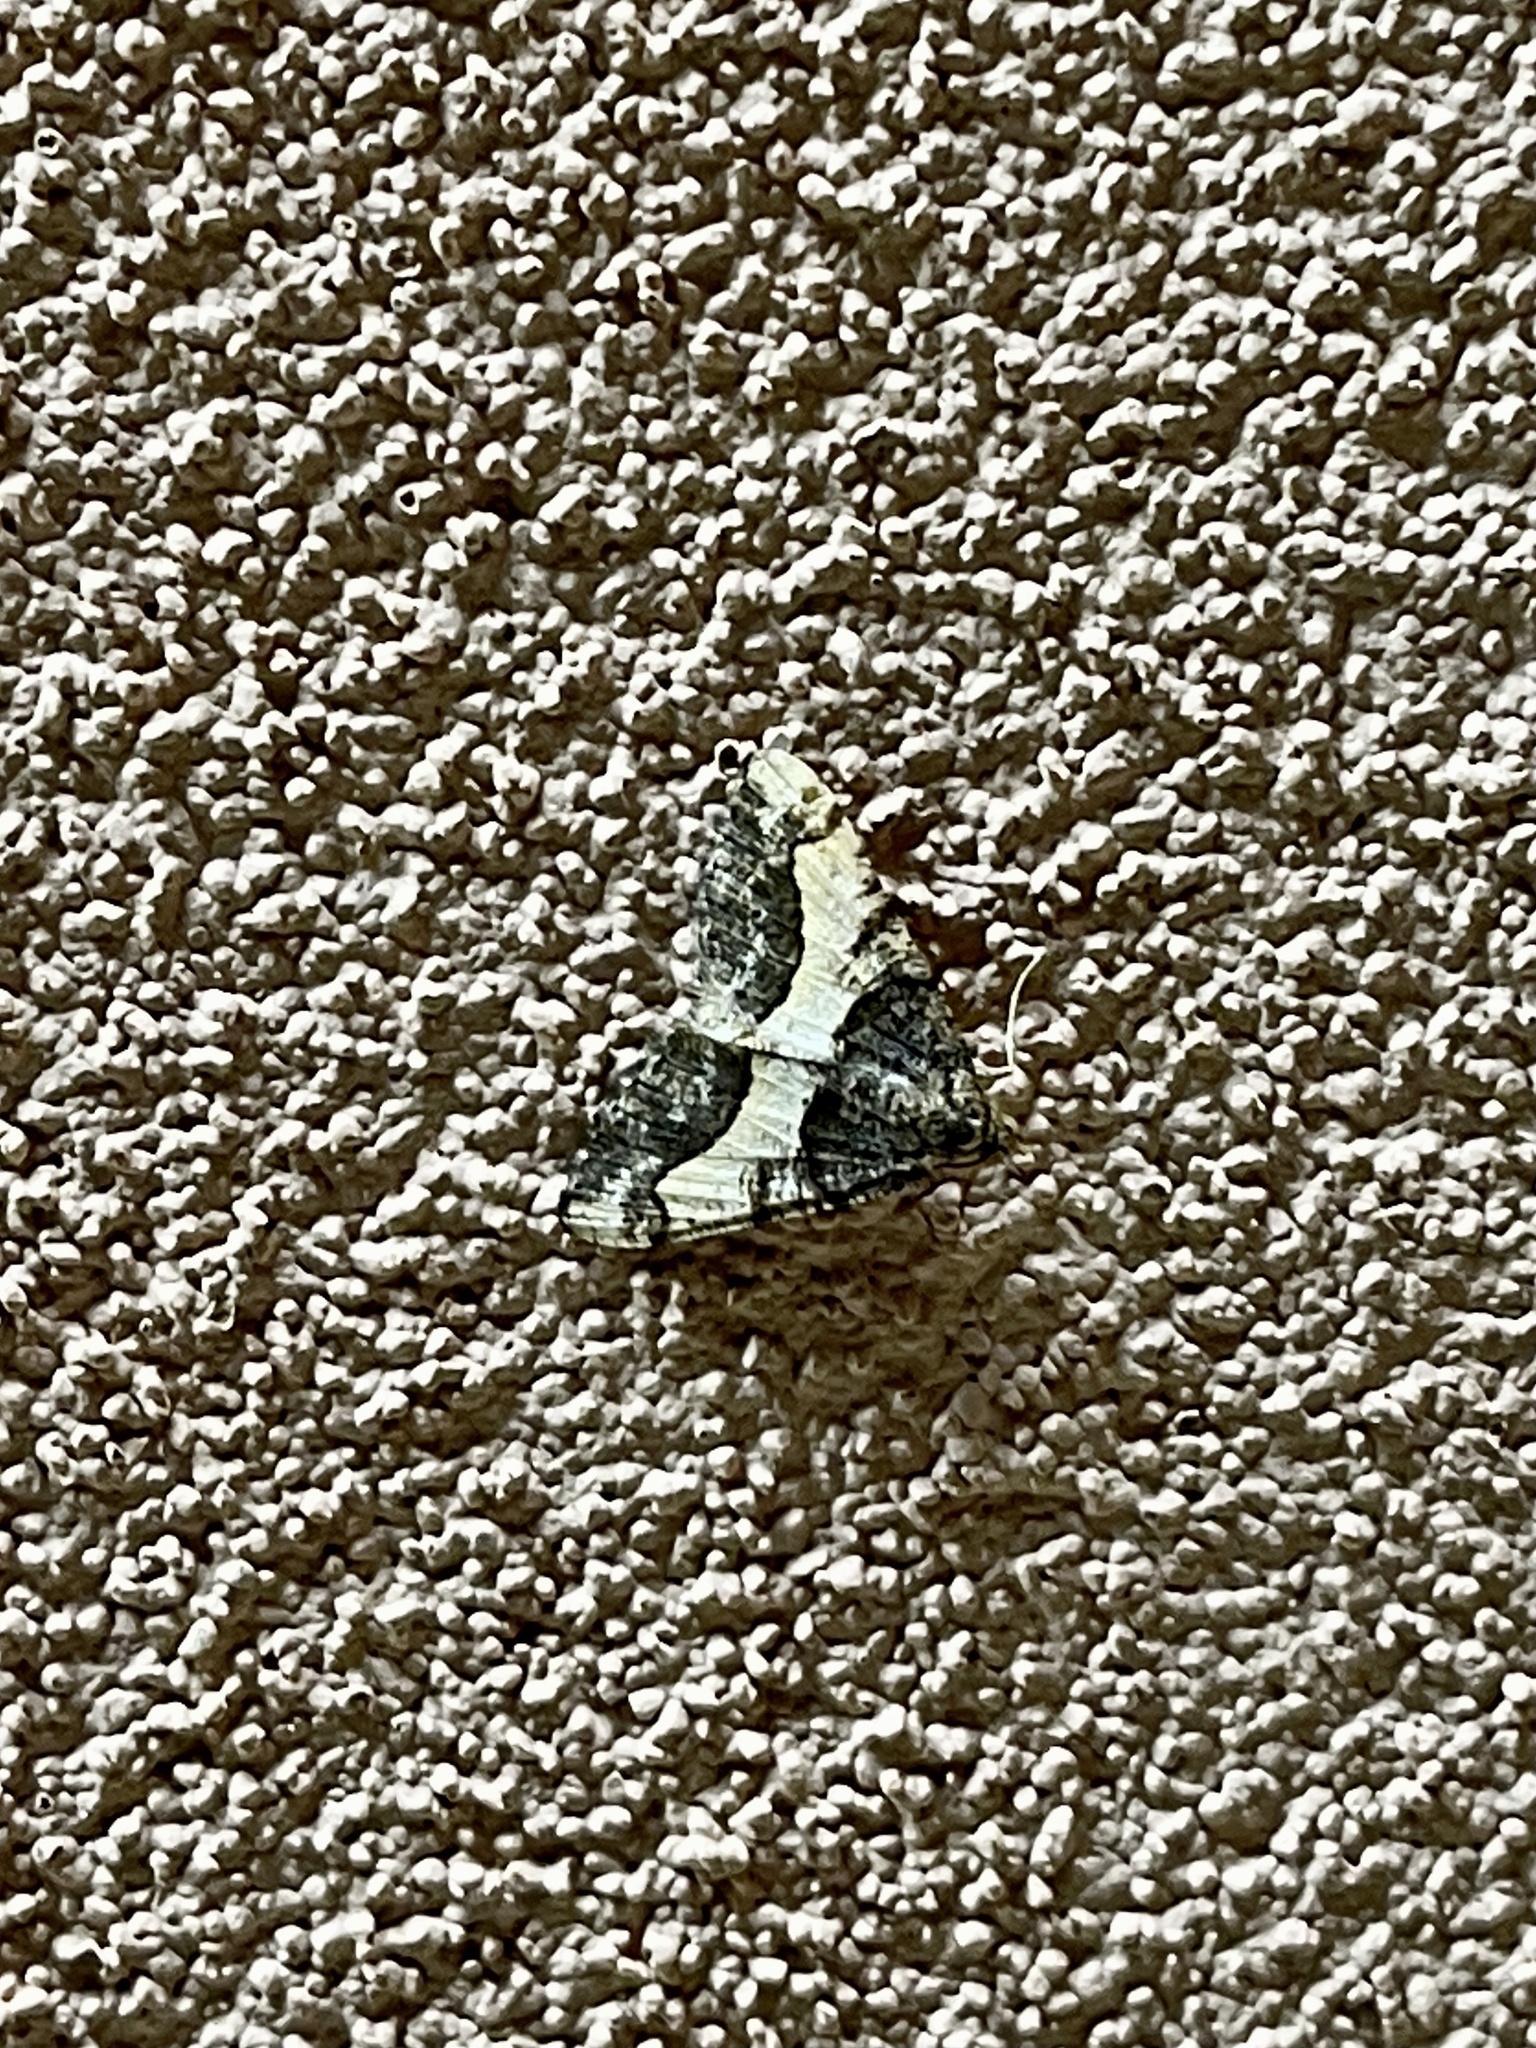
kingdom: Animalia
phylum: Arthropoda
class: Insecta
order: Lepidoptera
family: Geometridae
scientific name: Geometridae
